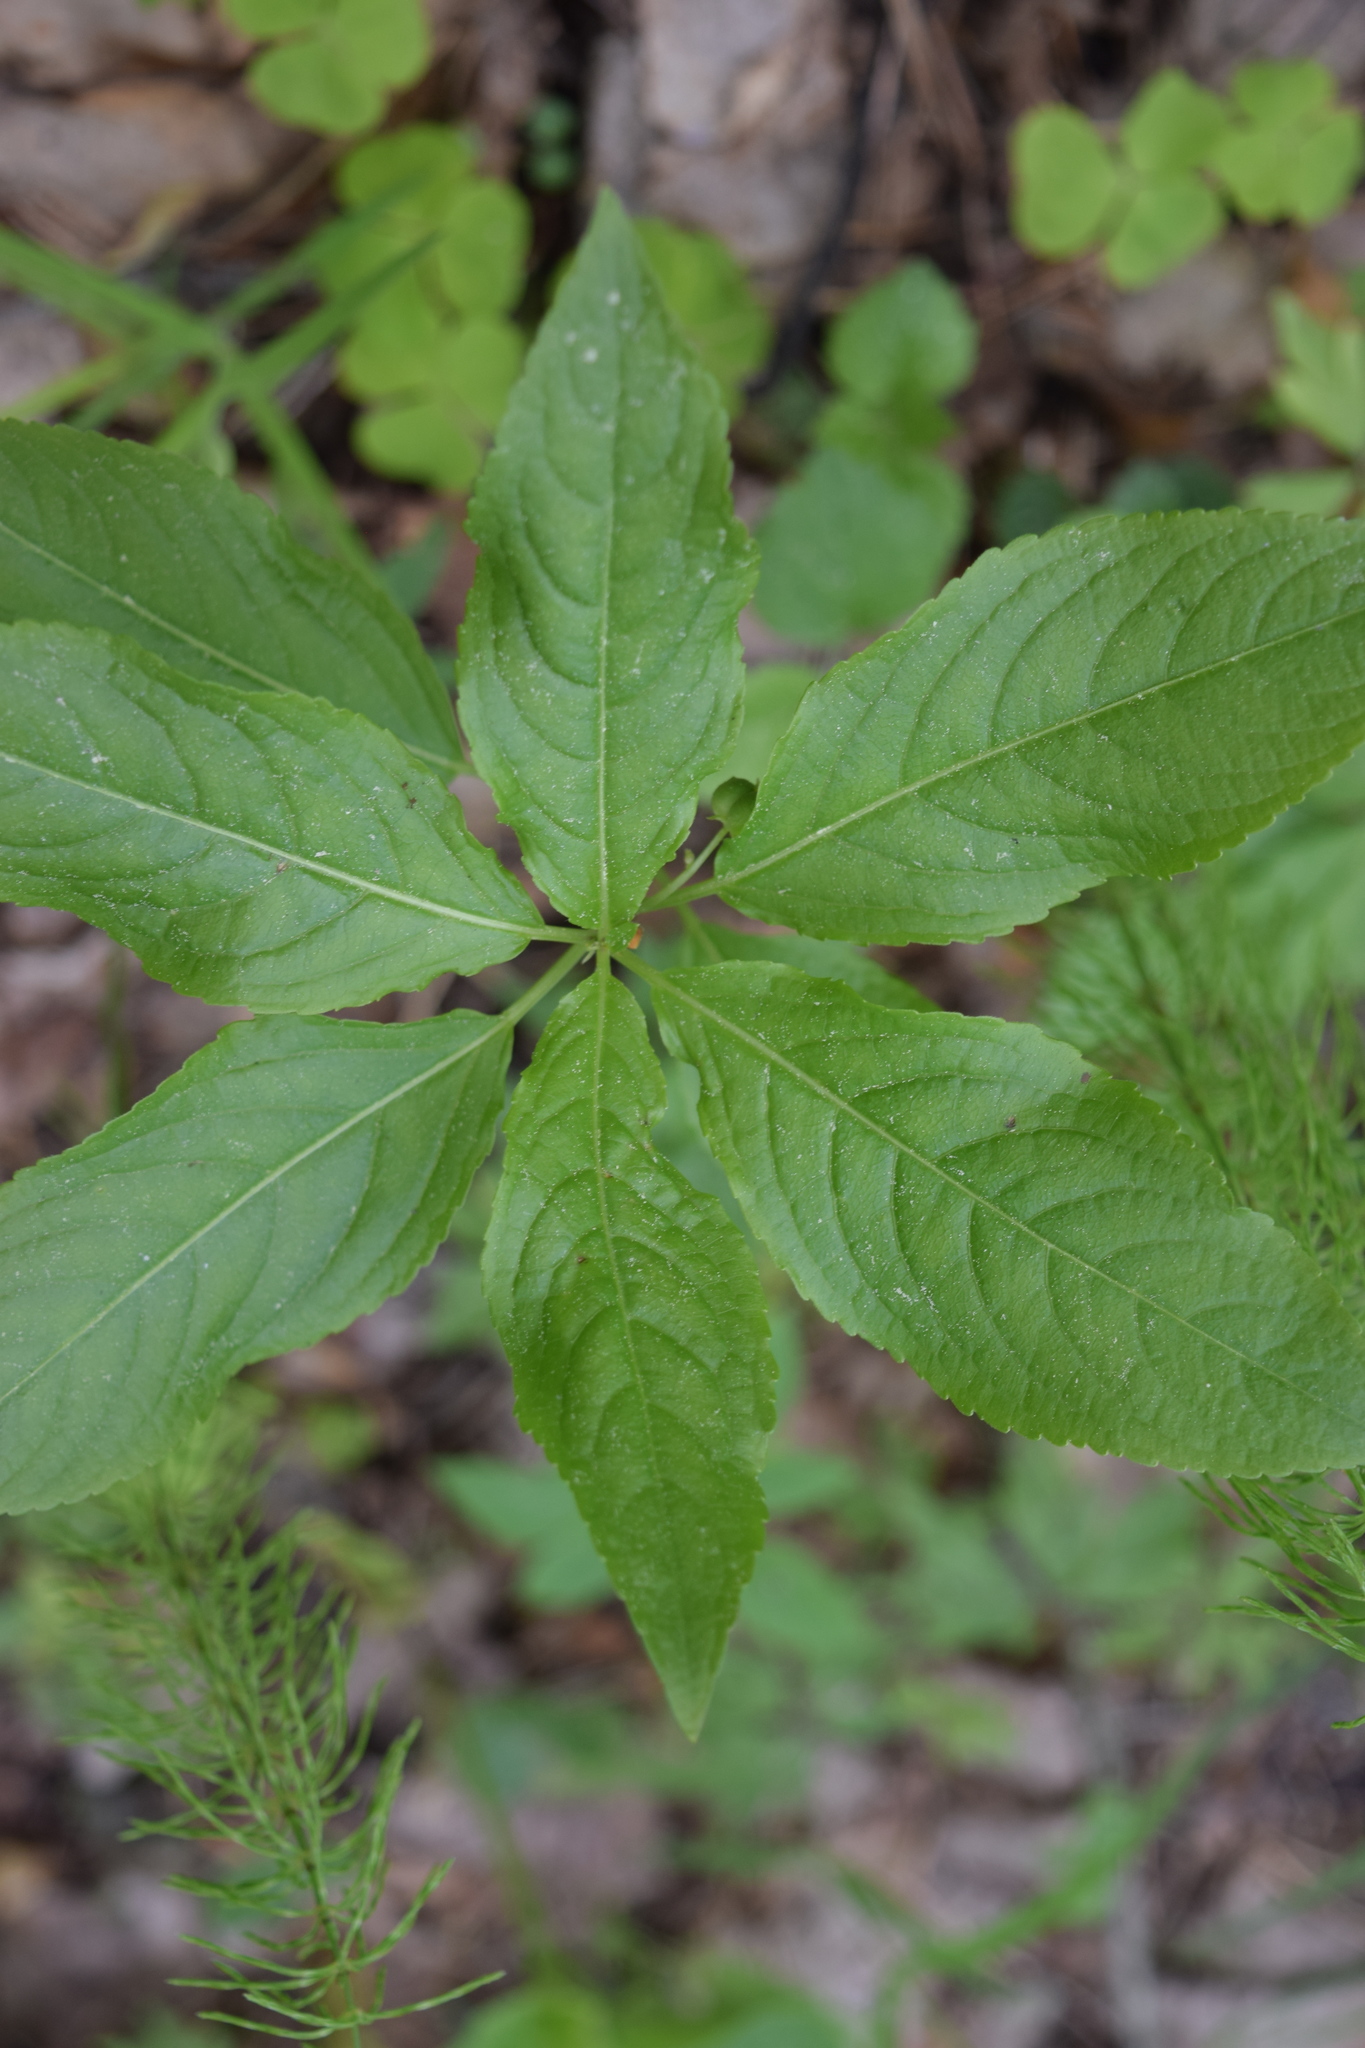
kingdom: Plantae
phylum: Tracheophyta
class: Magnoliopsida
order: Malpighiales
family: Euphorbiaceae
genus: Mercurialis
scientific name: Mercurialis perennis
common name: Dog mercury
